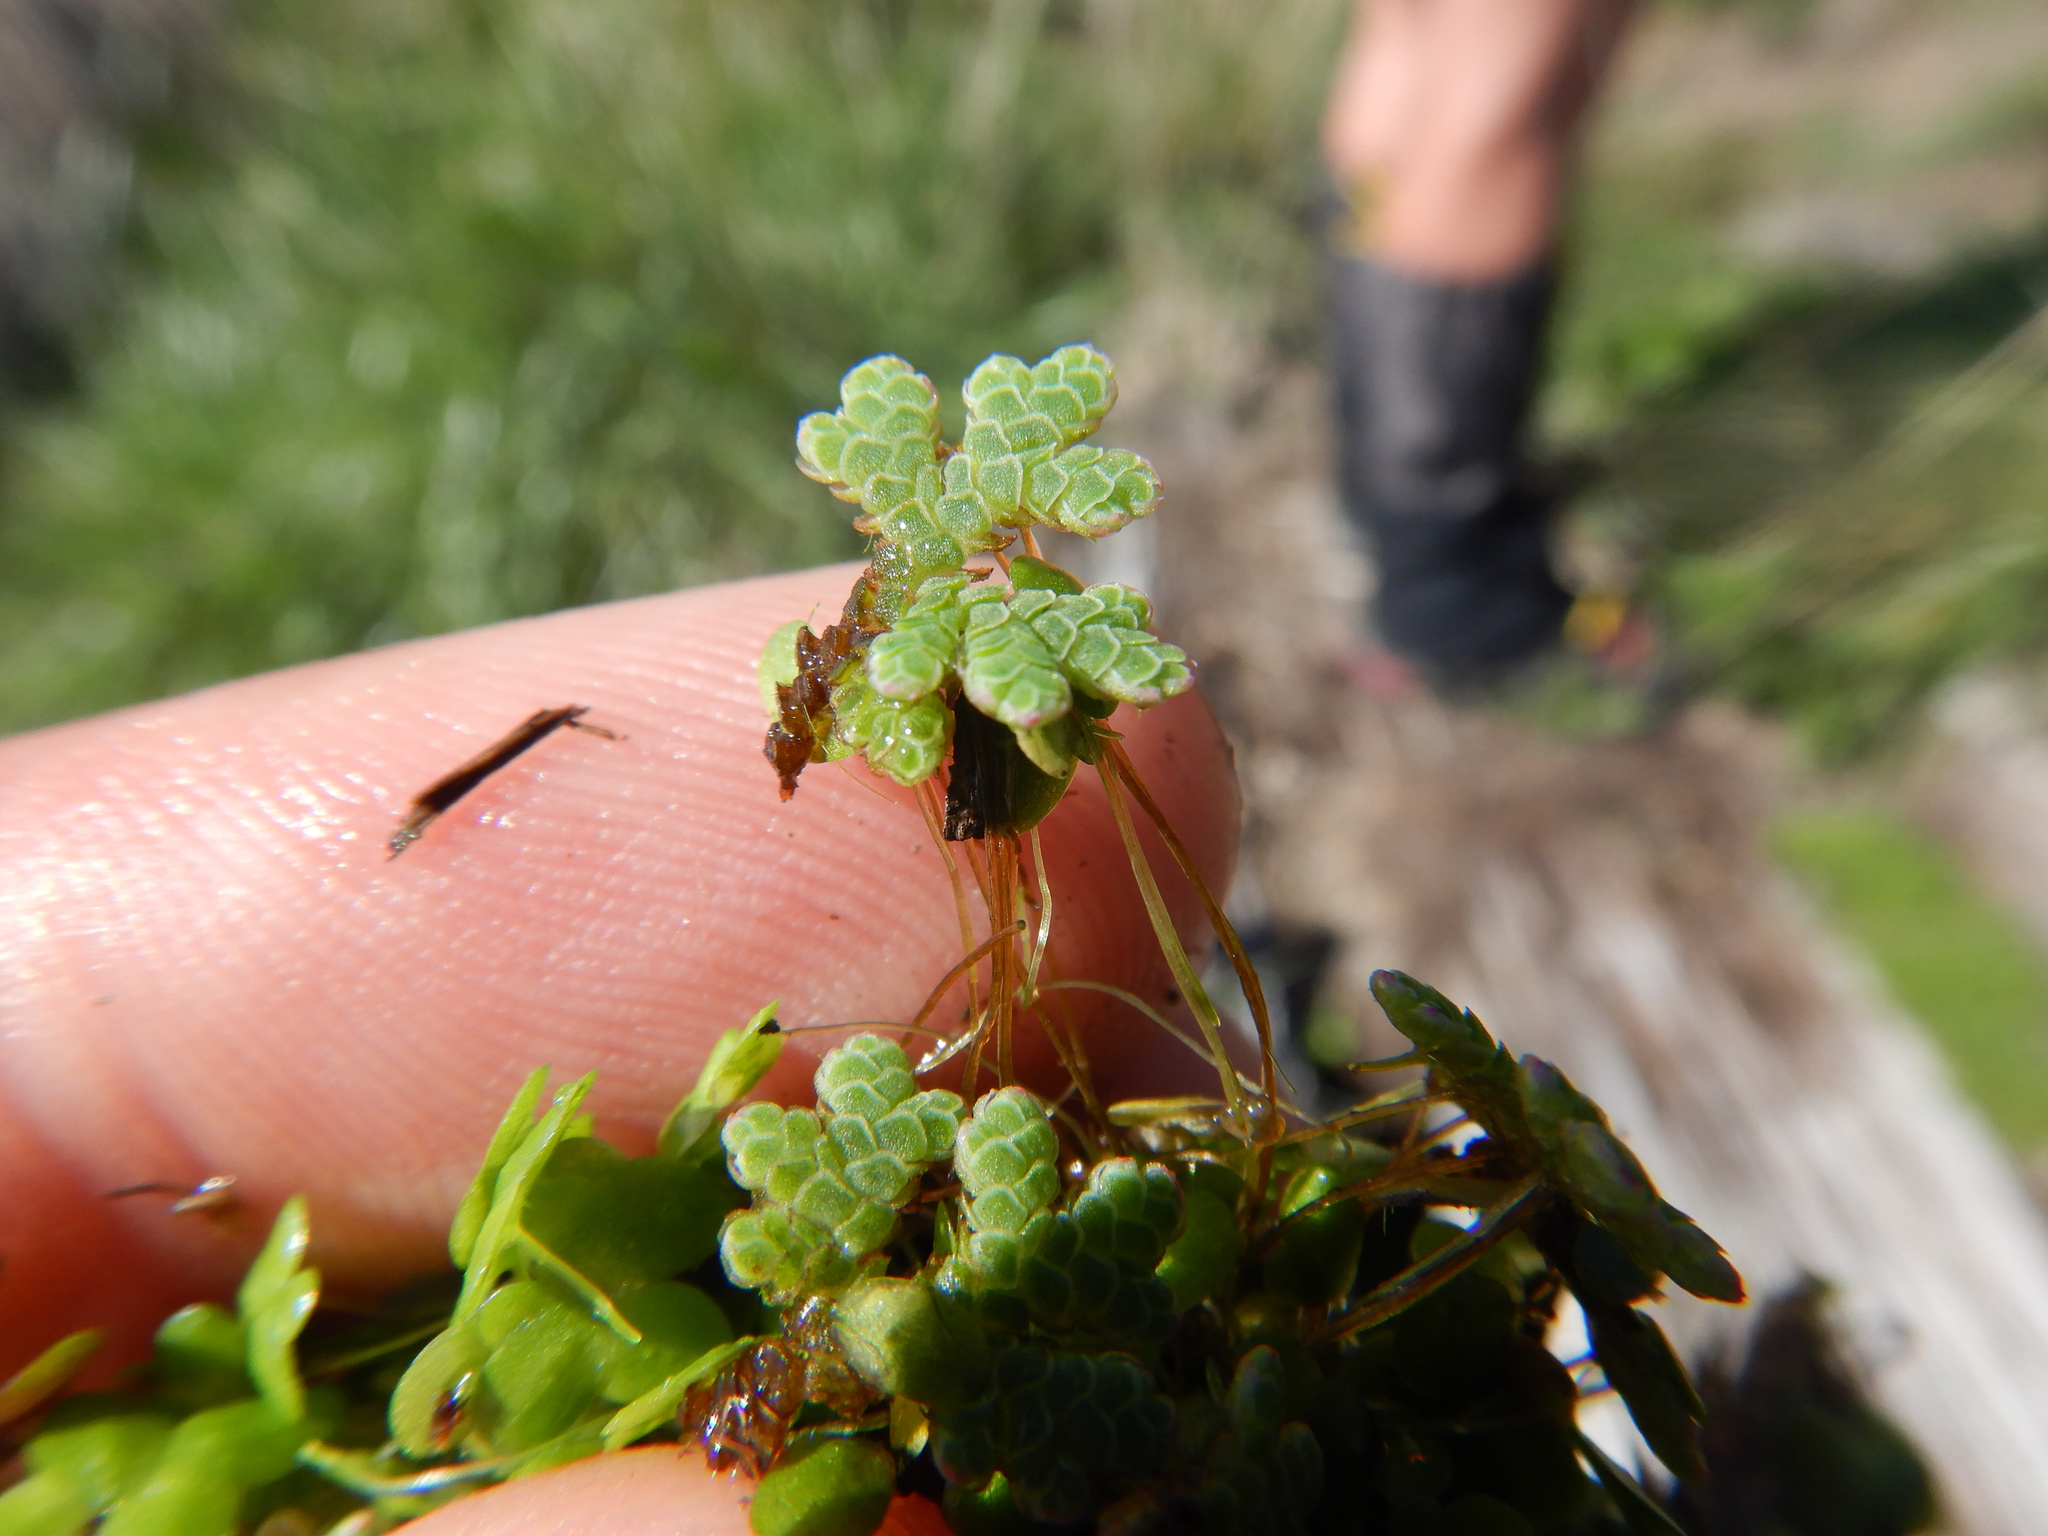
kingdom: Plantae
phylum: Tracheophyta
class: Polypodiopsida
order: Salviniales
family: Salviniaceae
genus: Azolla
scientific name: Azolla rubra
